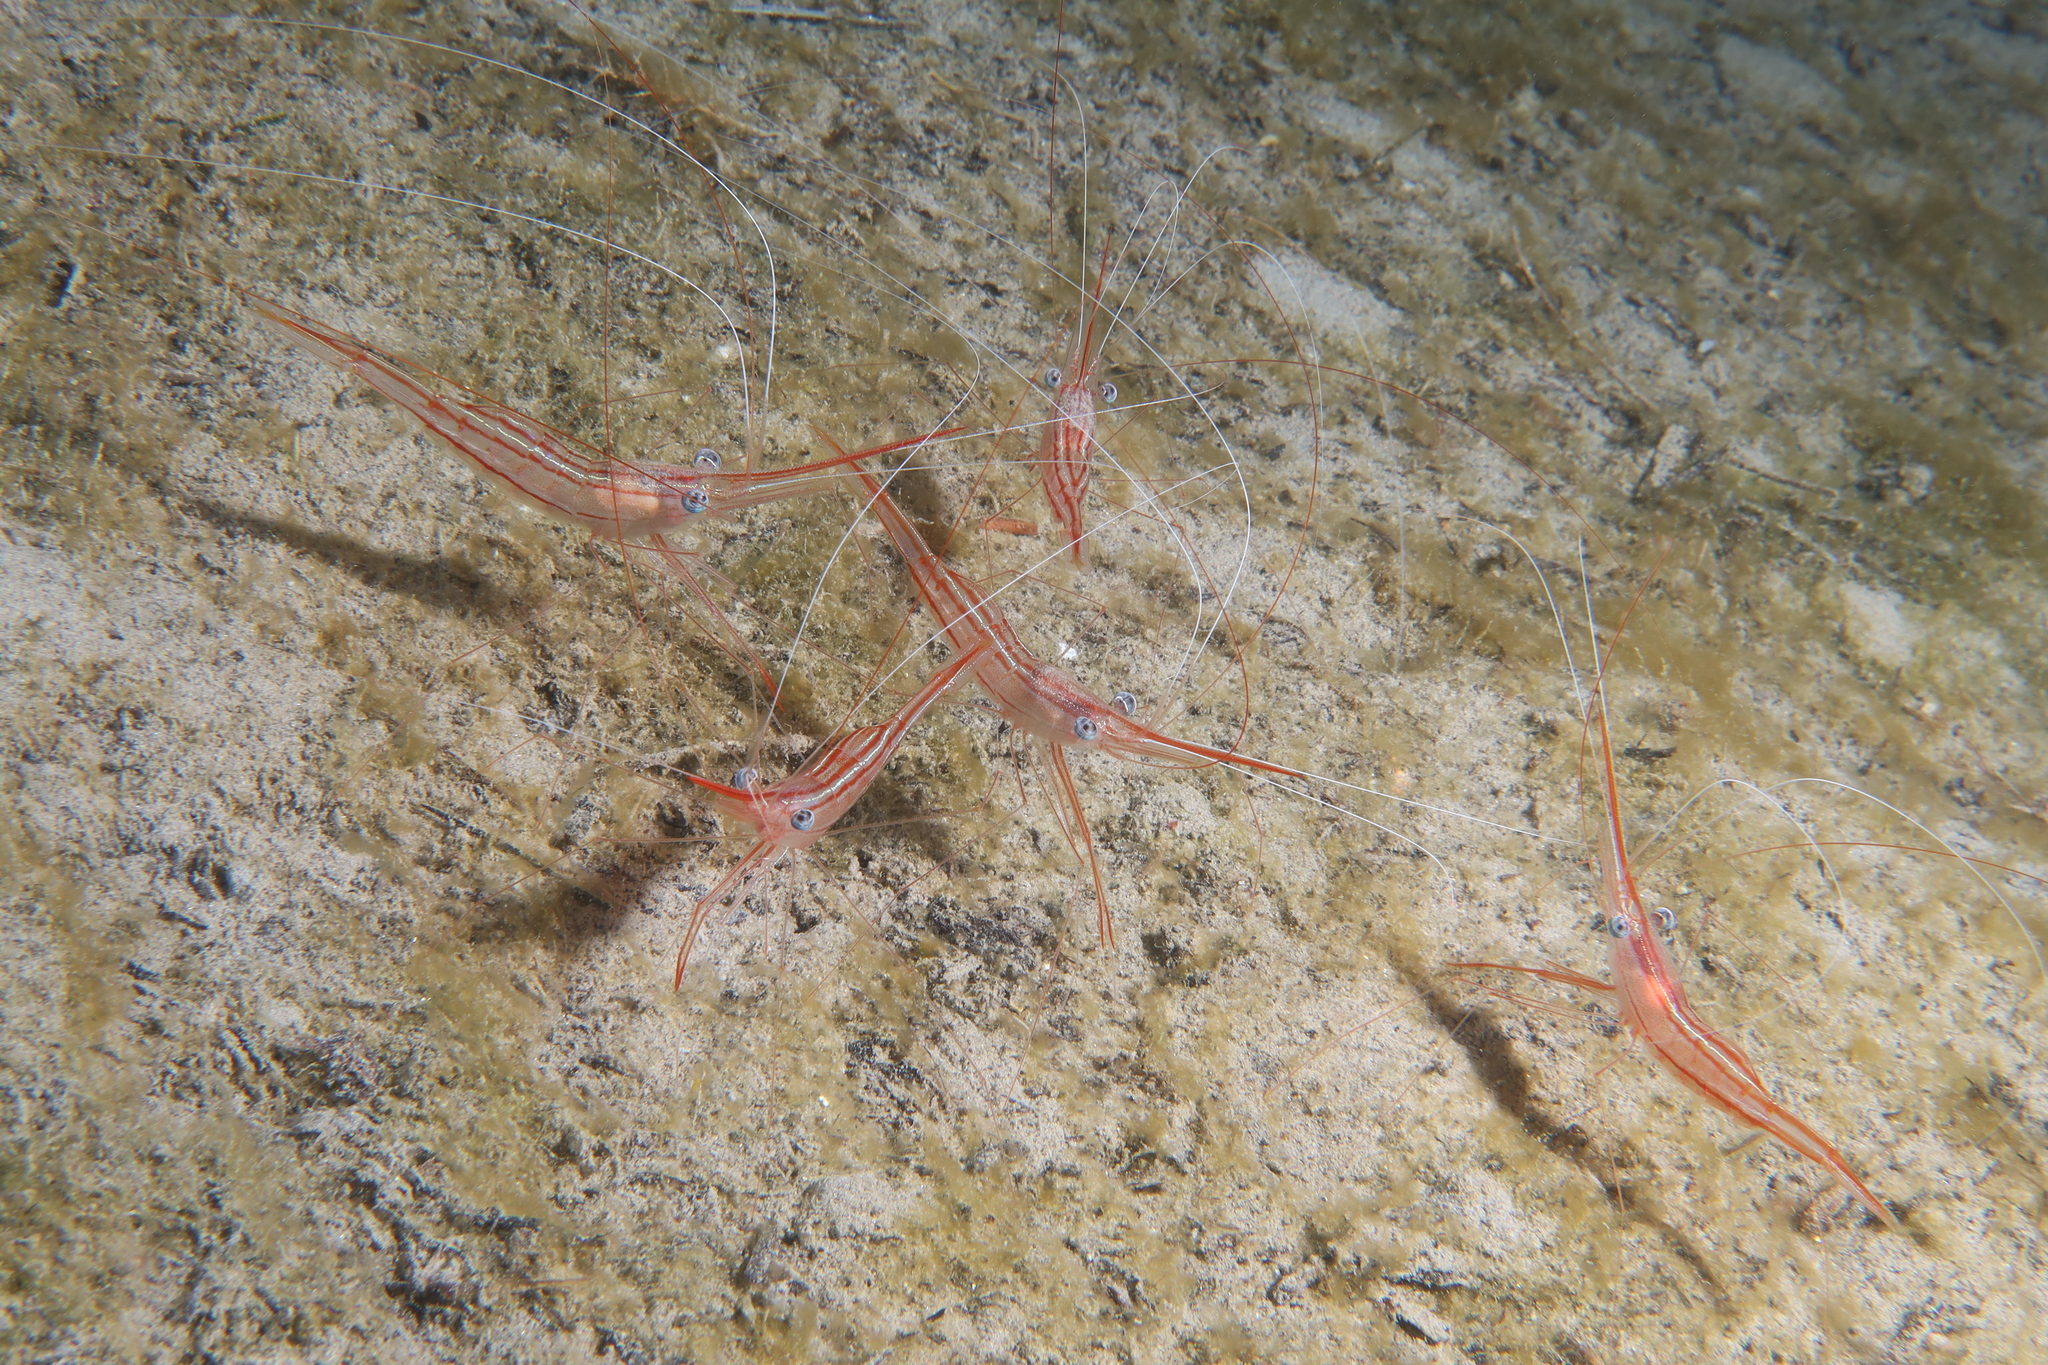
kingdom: Animalia
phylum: Arthropoda
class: Malacostraca
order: Decapoda
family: Pandalidae
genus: Plesionika
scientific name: Plesionika narval
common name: Narwal shrimp
